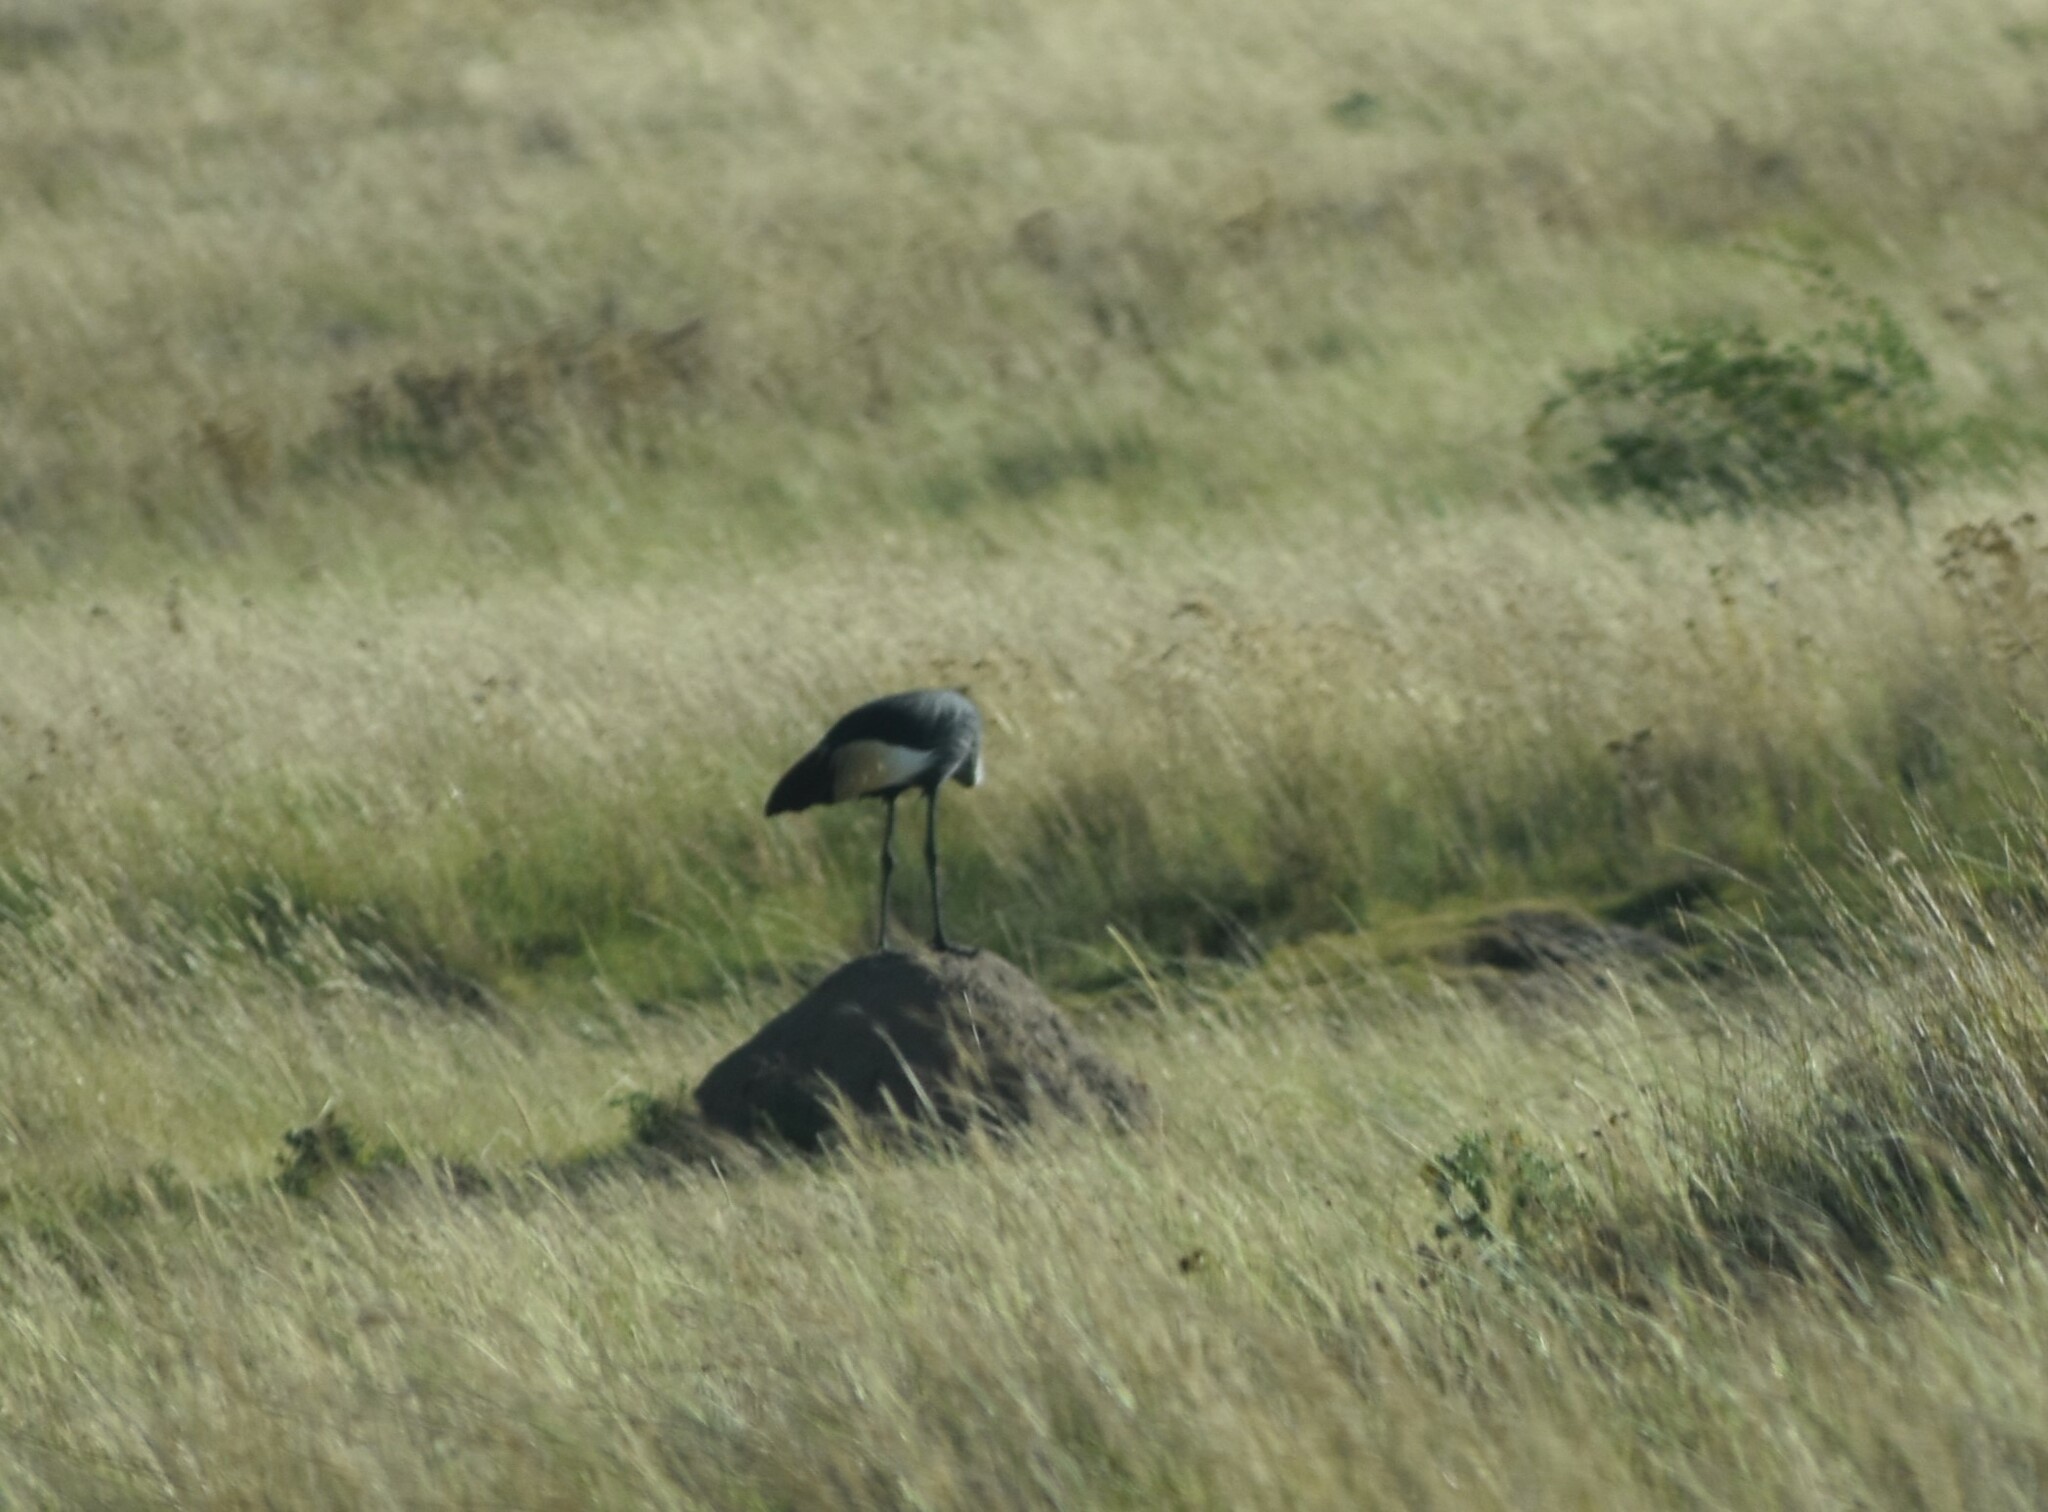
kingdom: Animalia
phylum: Chordata
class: Aves
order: Gruiformes
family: Gruidae
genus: Balearica
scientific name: Balearica regulorum
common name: Grey crowned crane
